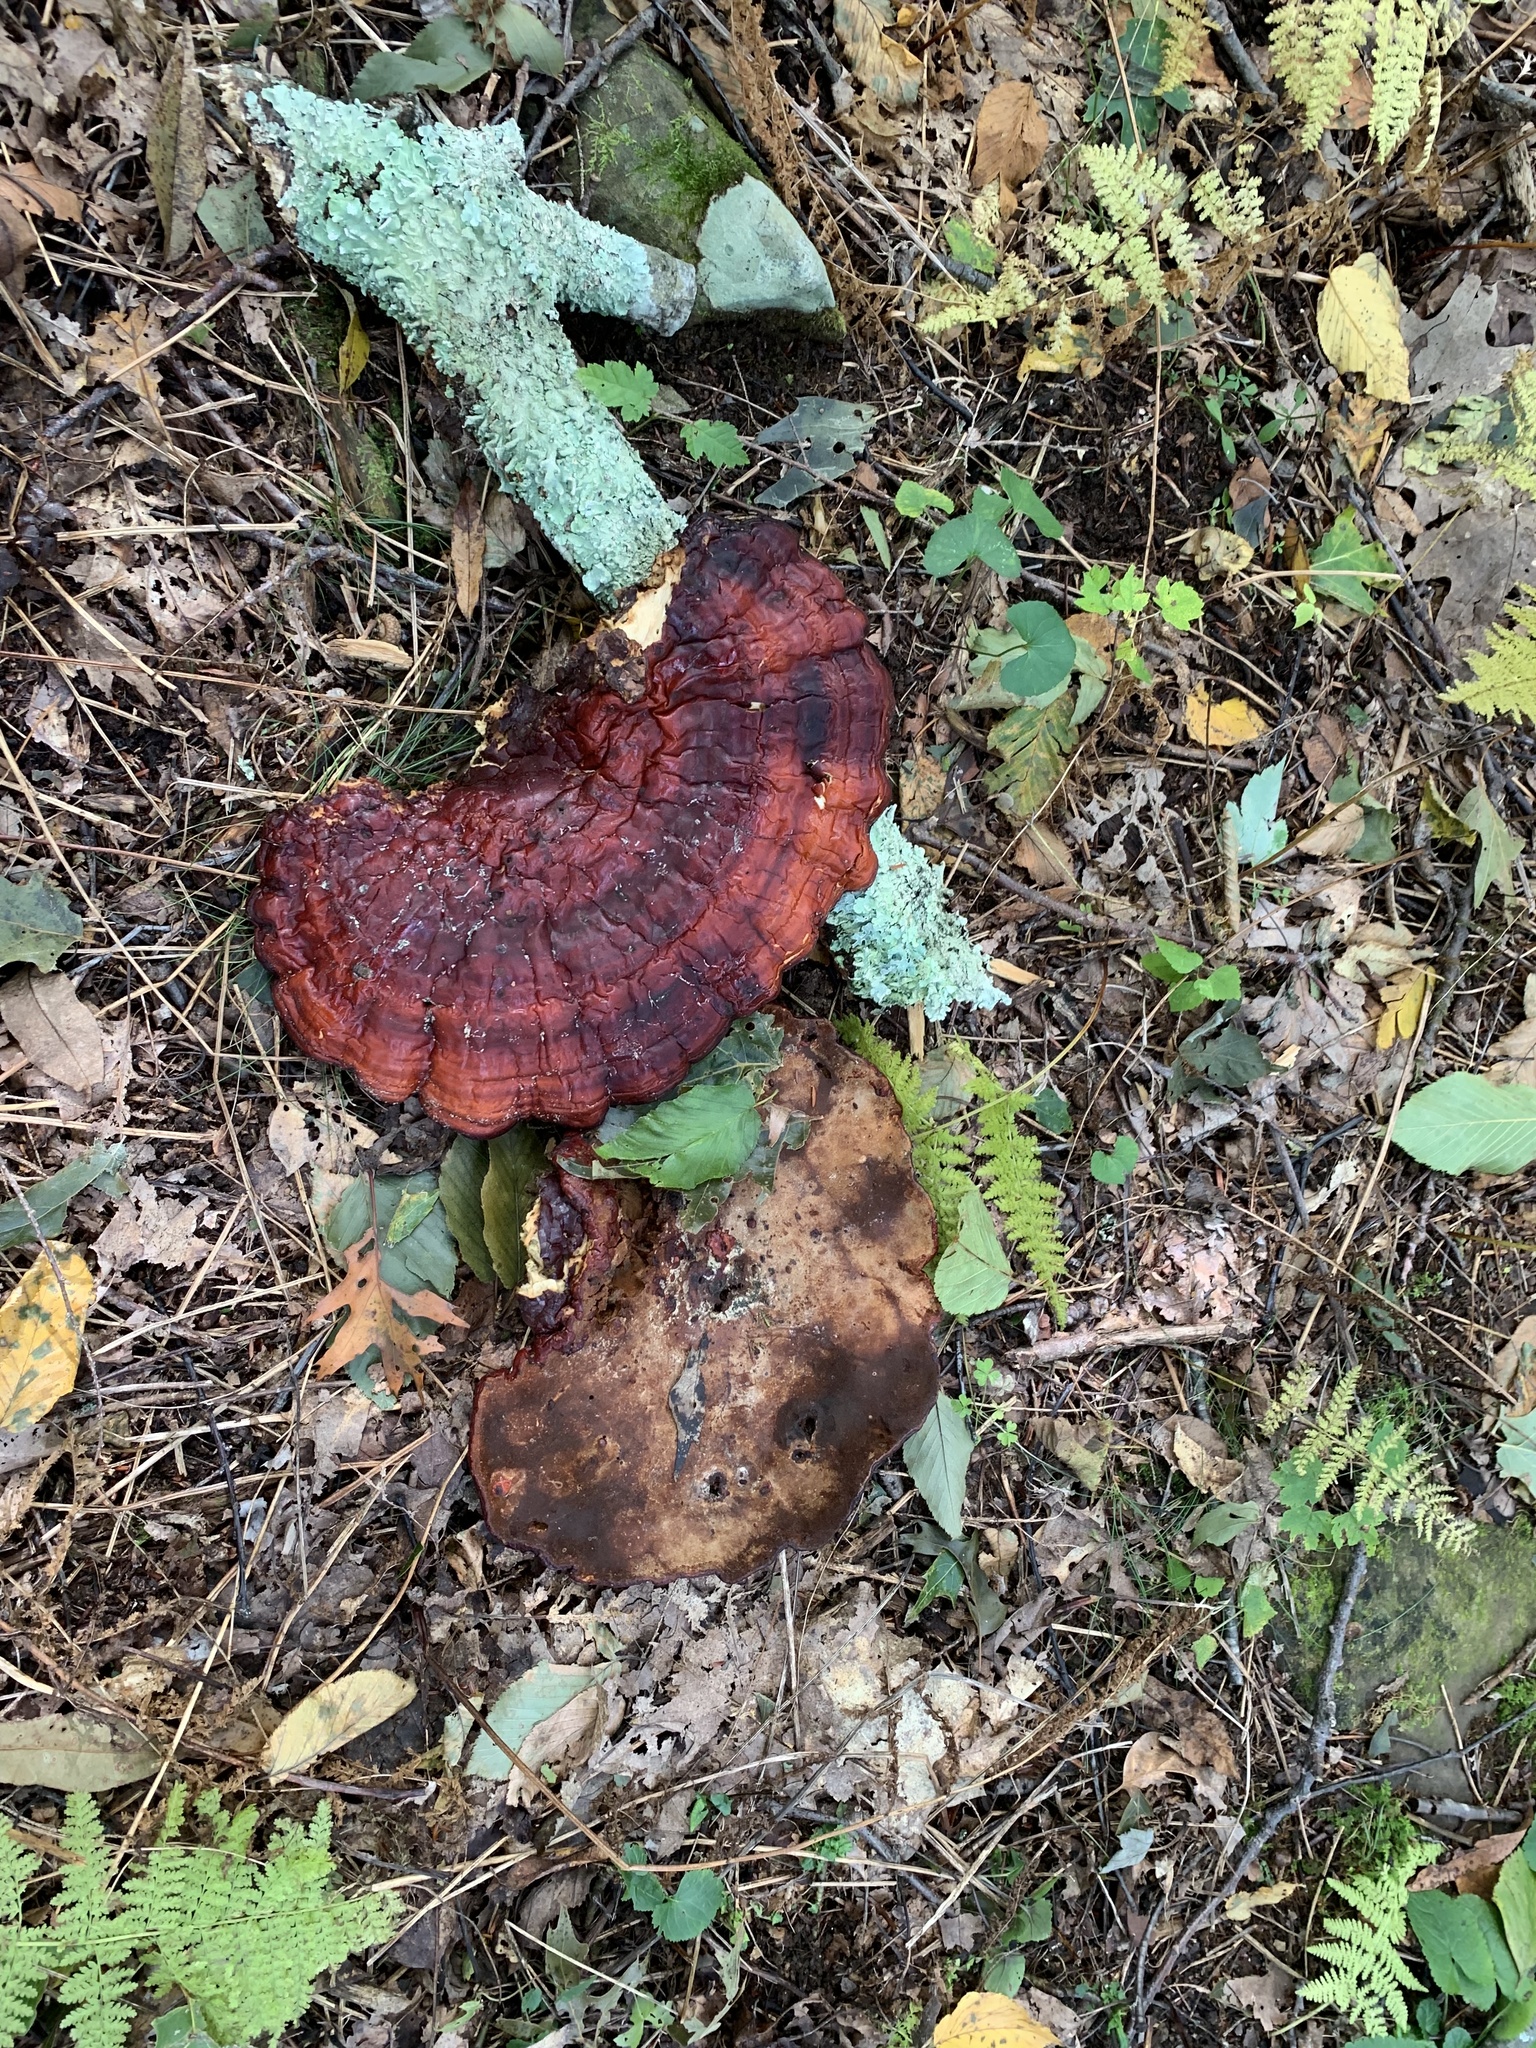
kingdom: Fungi
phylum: Basidiomycota
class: Agaricomycetes
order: Polyporales
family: Polyporaceae
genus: Ganoderma
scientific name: Ganoderma tsugae
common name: Hemlock varnish shelf
